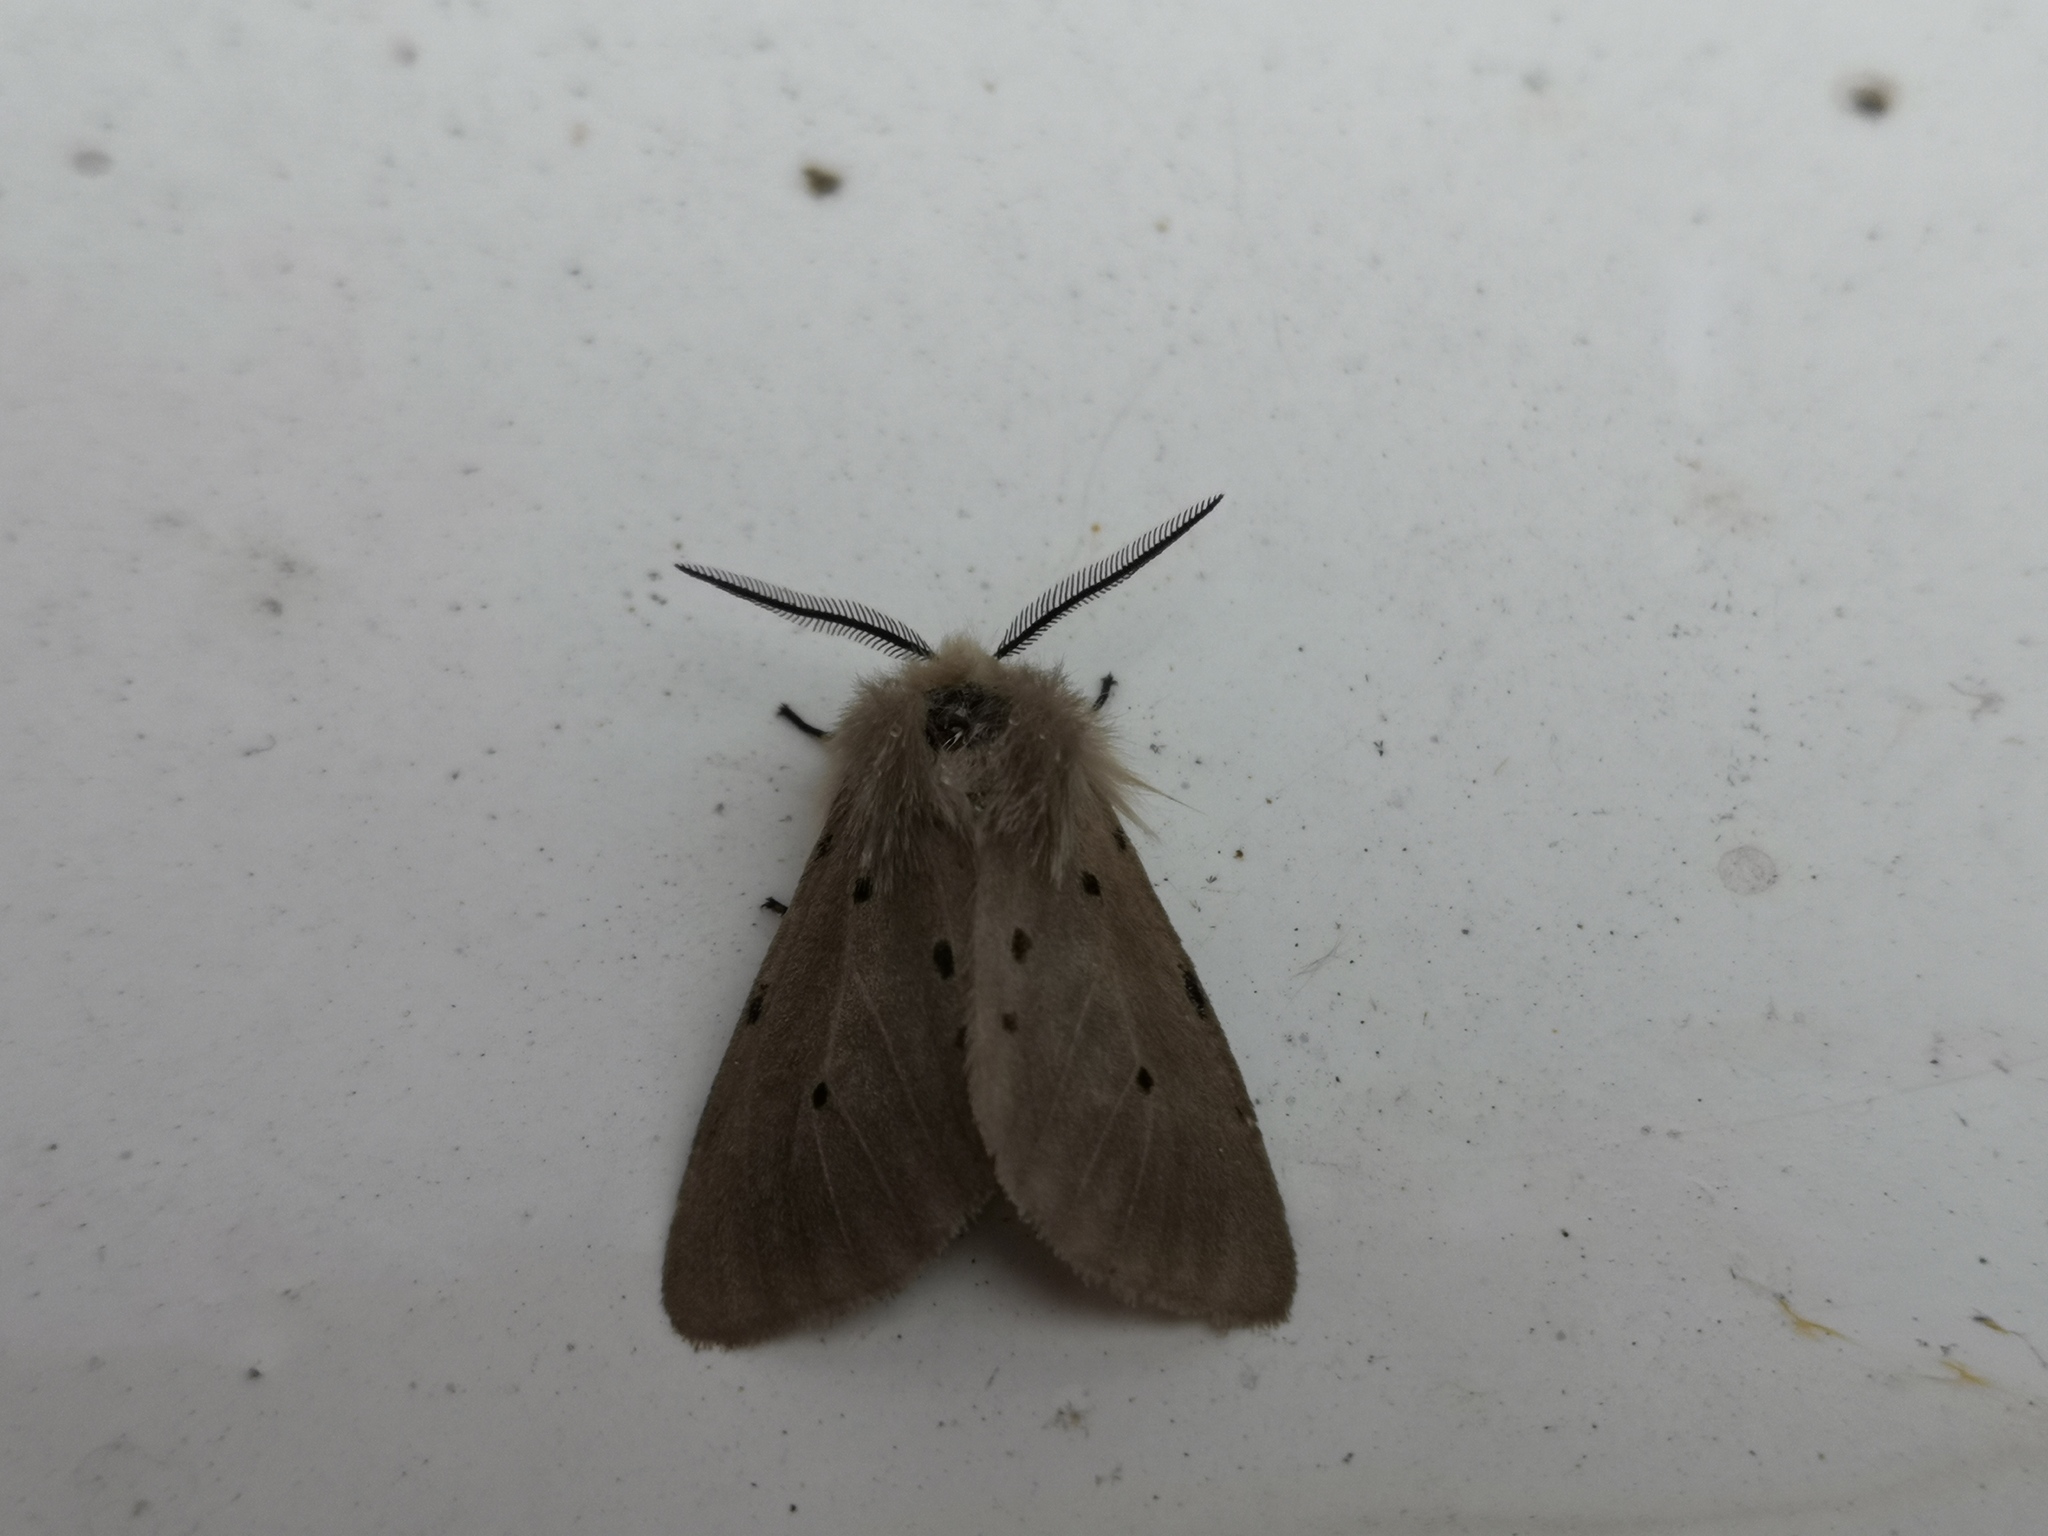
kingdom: Animalia
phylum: Arthropoda
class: Insecta
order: Lepidoptera
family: Erebidae
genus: Diaphora
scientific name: Diaphora mendica
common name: Muslin moth
